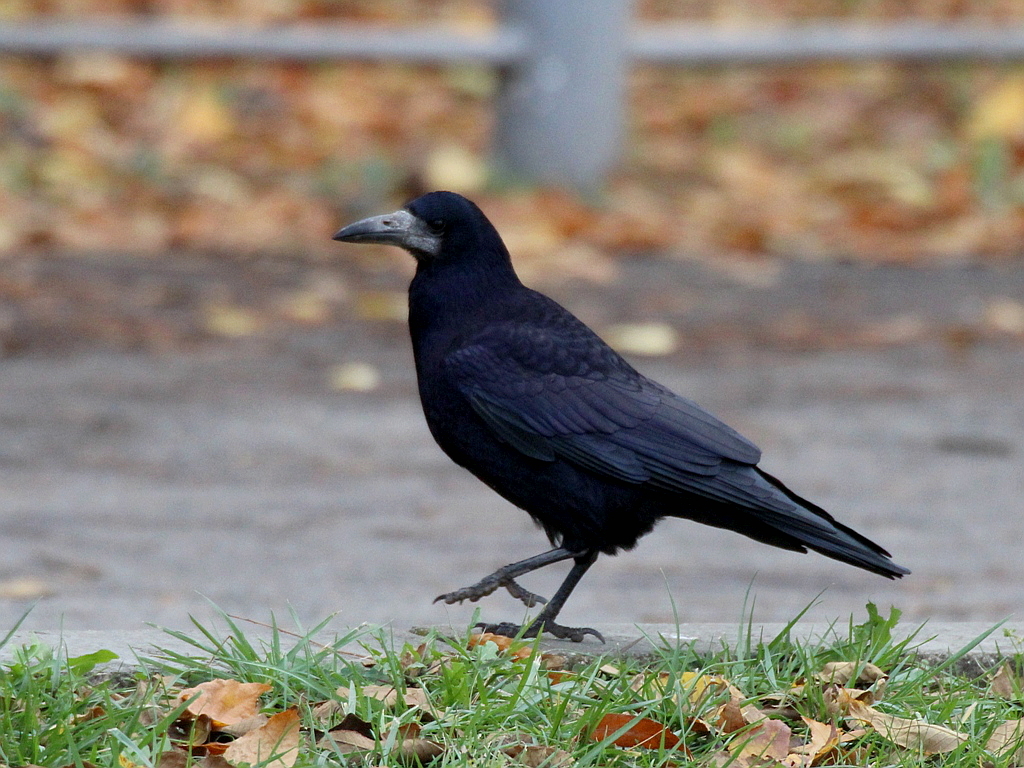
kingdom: Animalia
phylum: Chordata
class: Aves
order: Passeriformes
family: Corvidae
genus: Corvus
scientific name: Corvus frugilegus
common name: Rook
